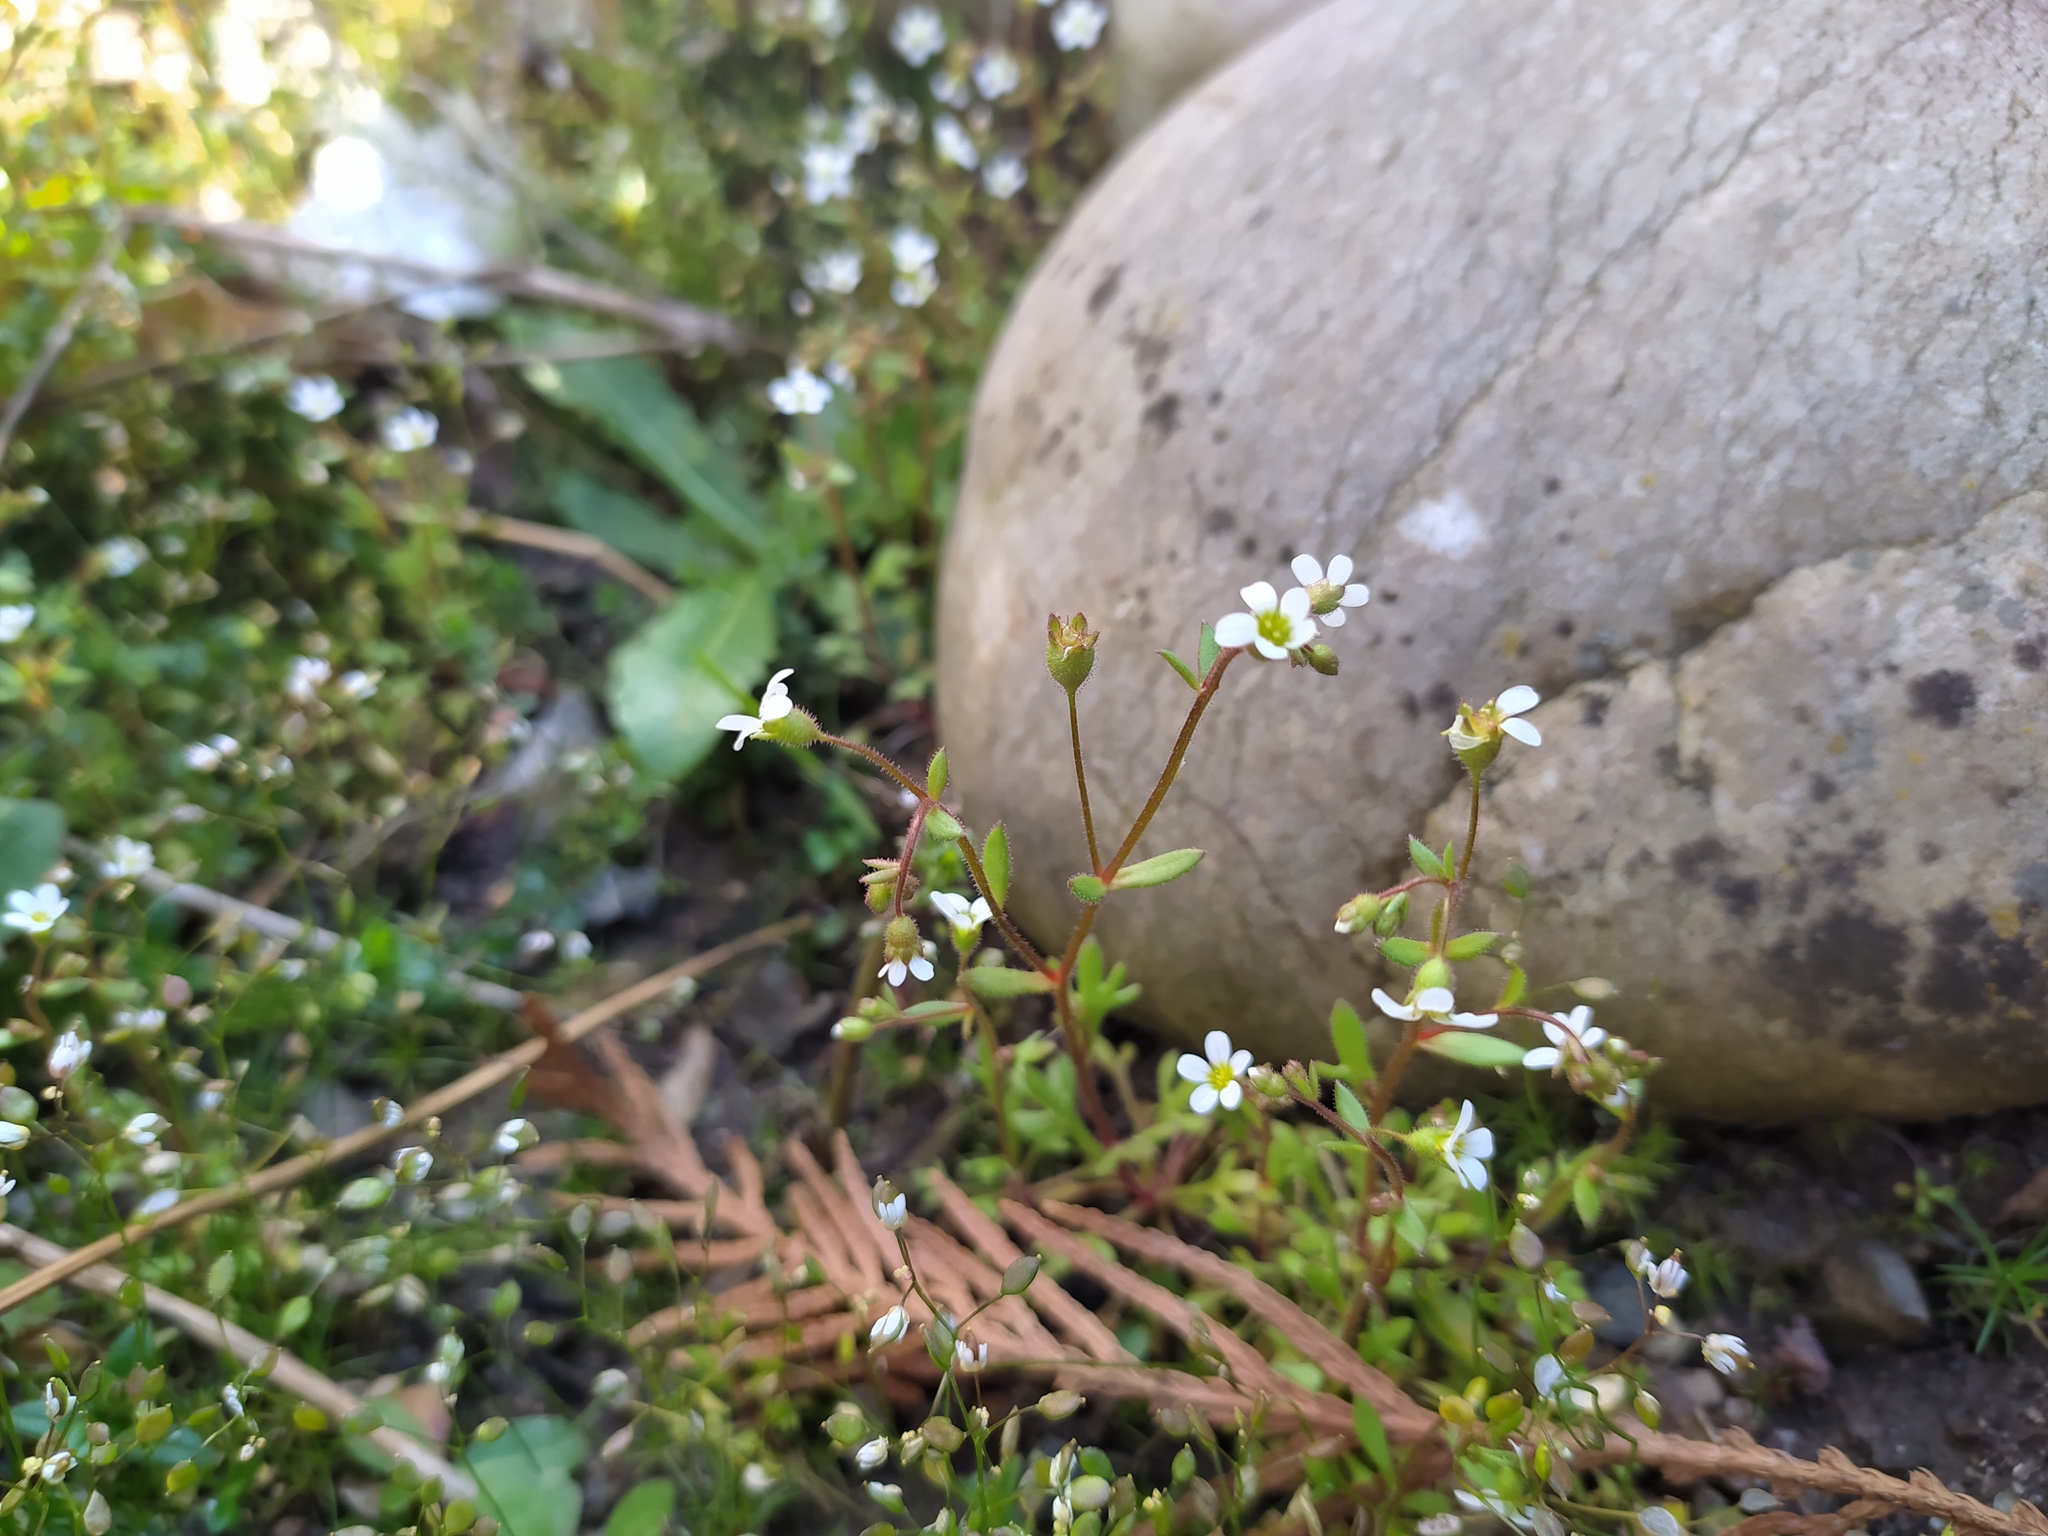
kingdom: Plantae
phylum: Tracheophyta
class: Magnoliopsida
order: Saxifragales
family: Saxifragaceae
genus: Saxifraga
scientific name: Saxifraga tridactylites
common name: Rue-leaved saxifrage
